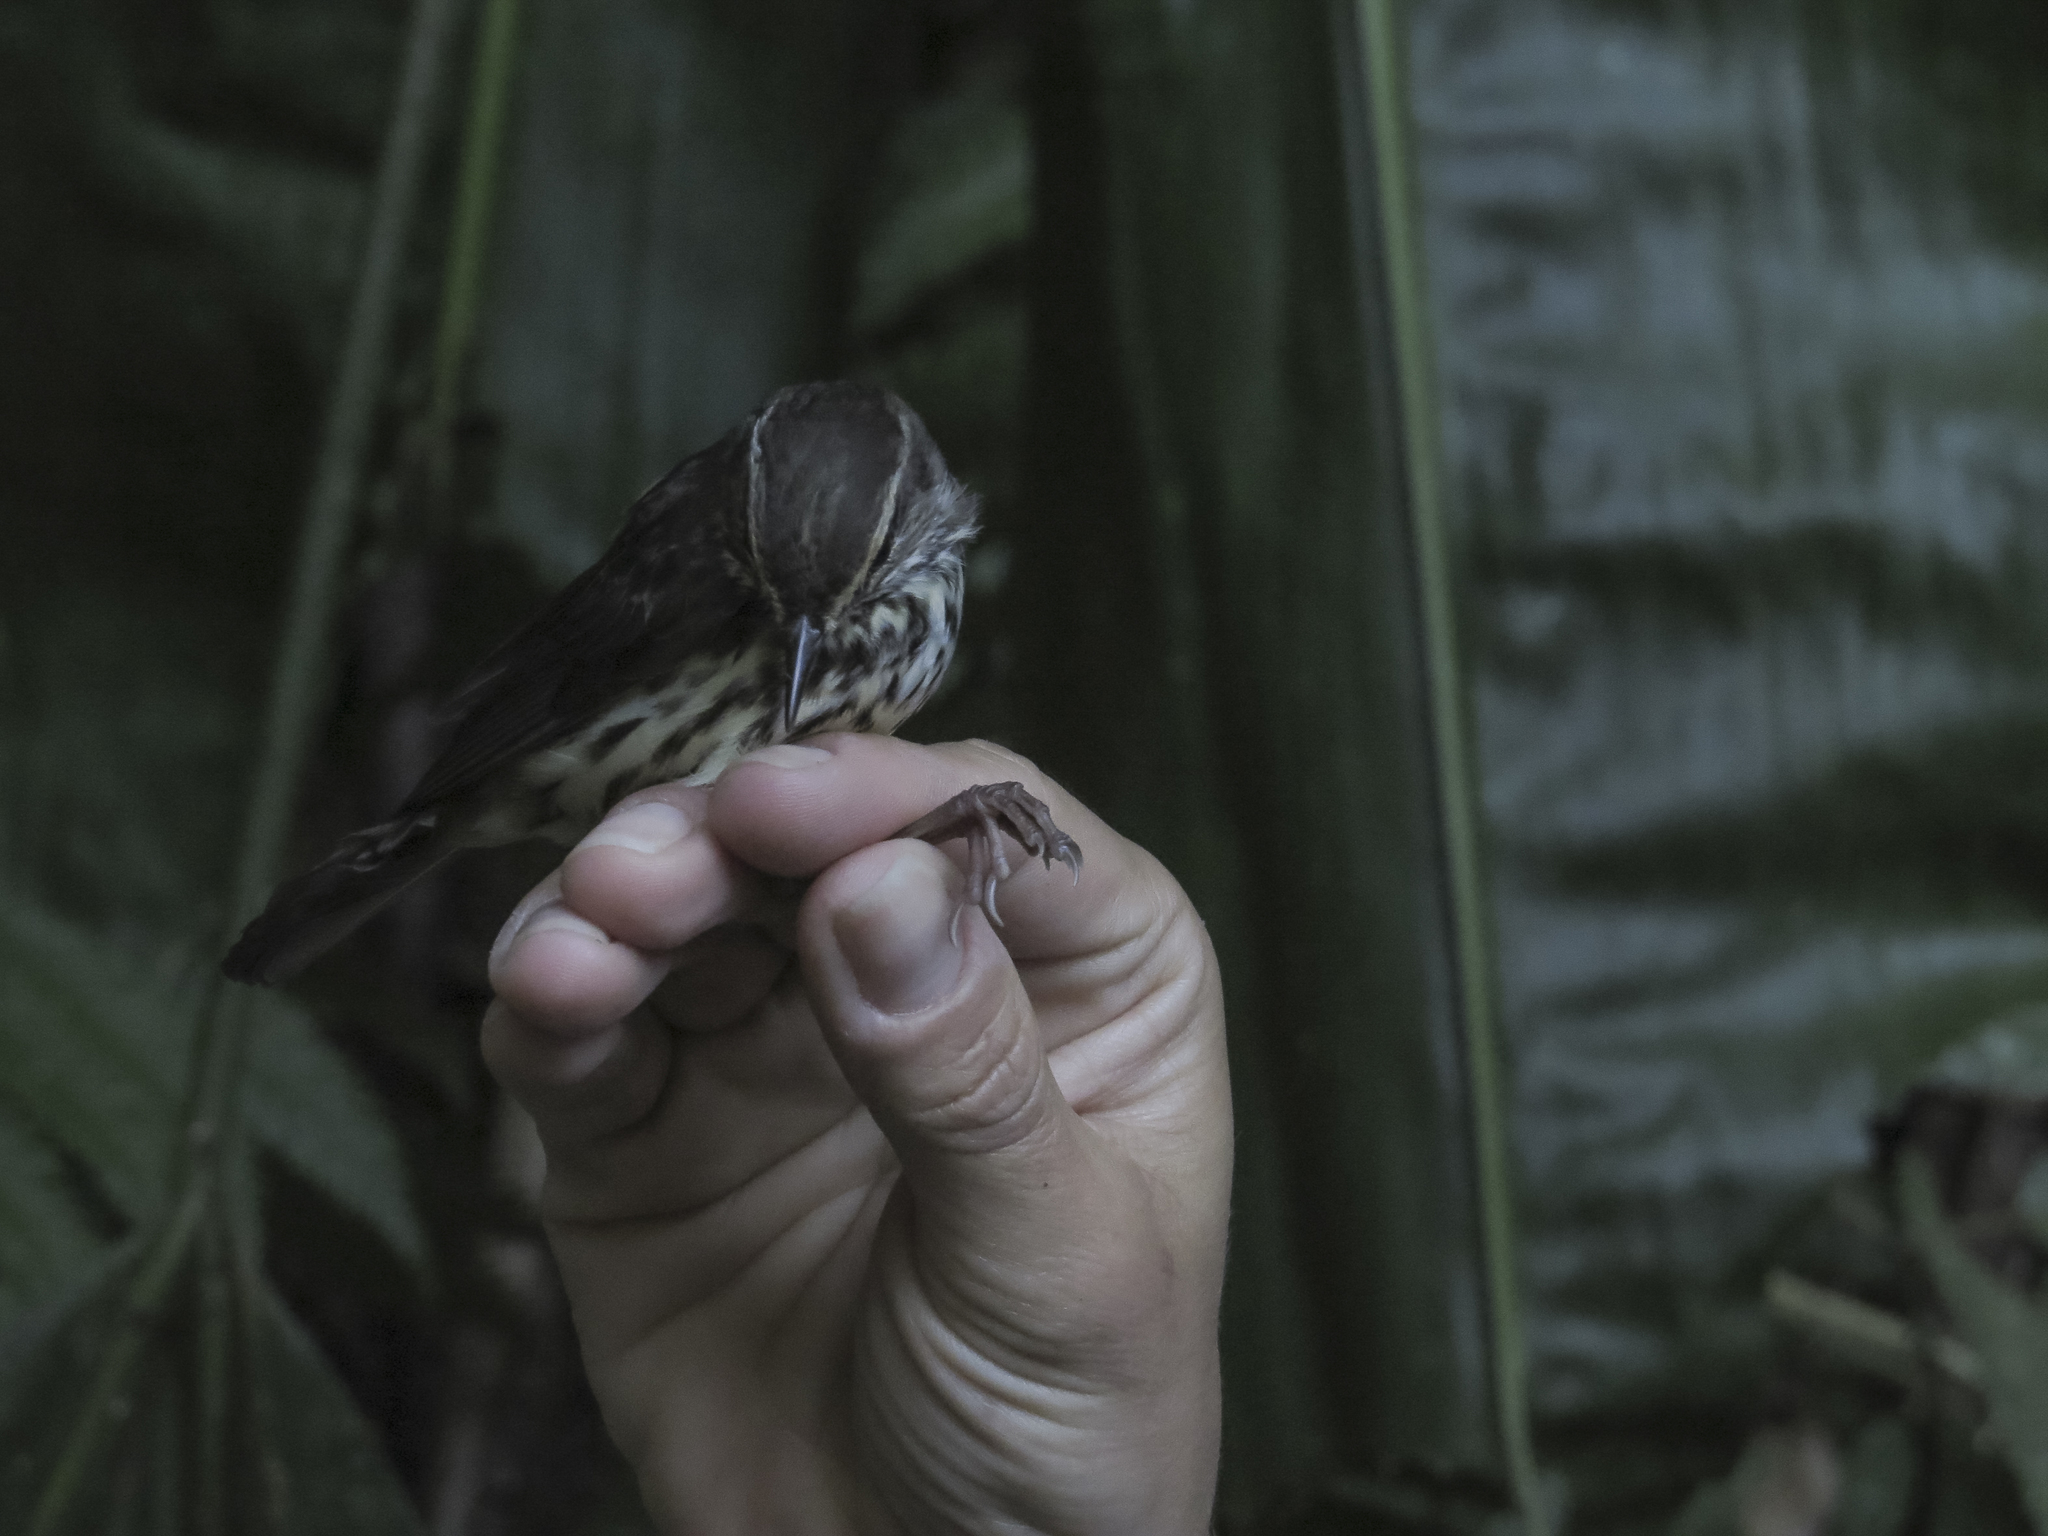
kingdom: Animalia
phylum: Chordata
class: Aves
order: Passeriformes
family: Parulidae
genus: Parkesia
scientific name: Parkesia noveboracensis
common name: Northern waterthrush
